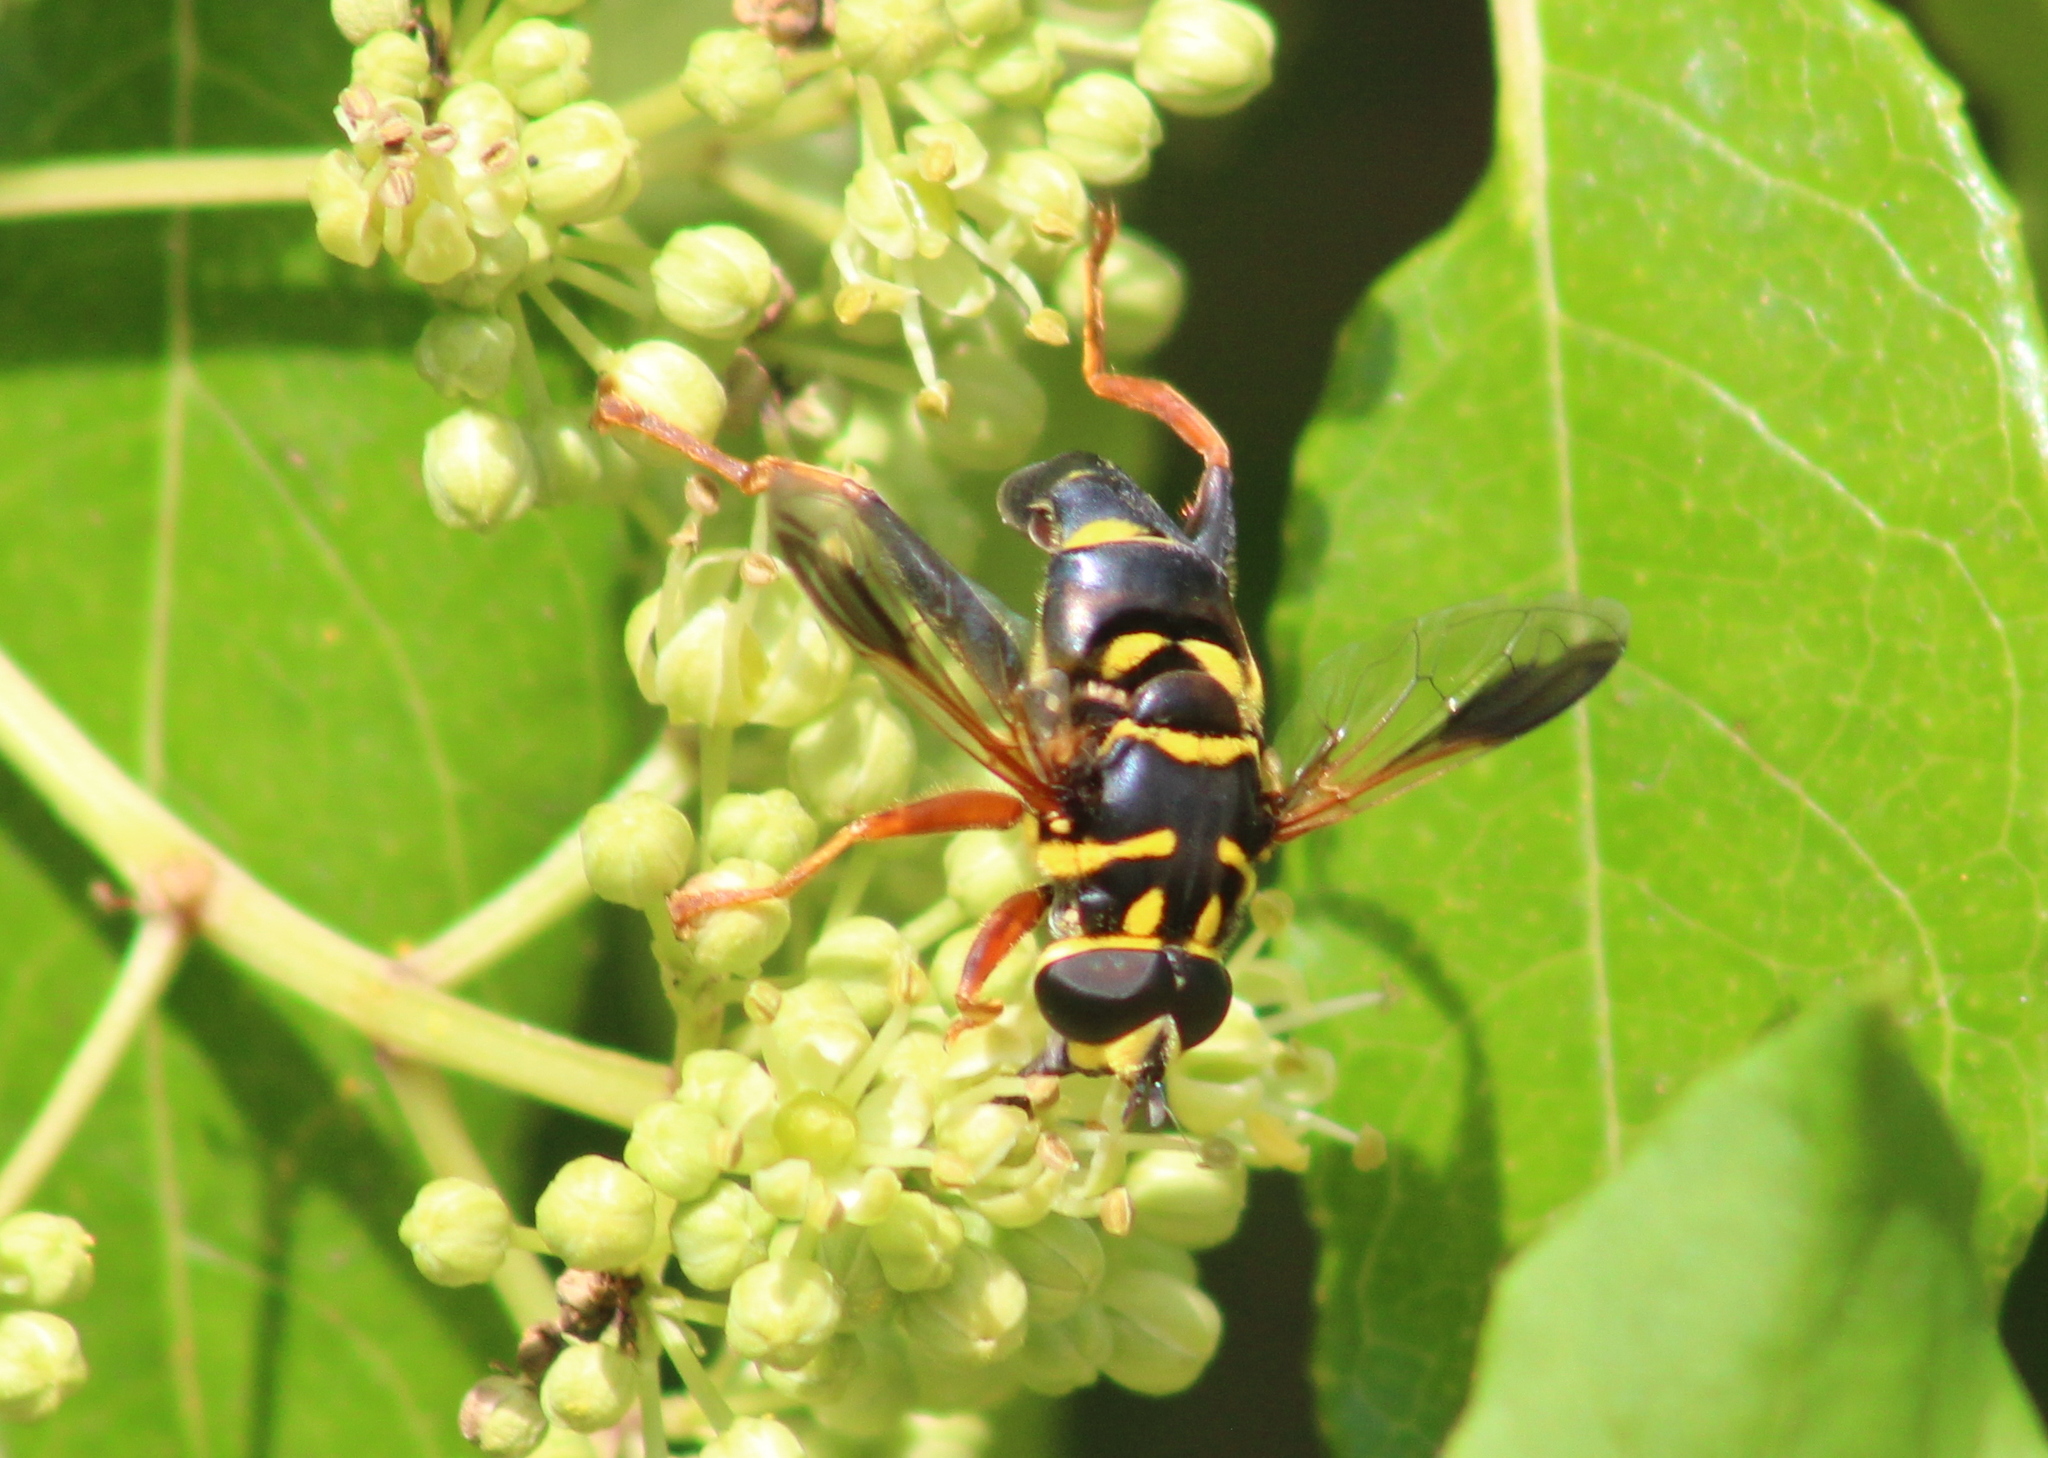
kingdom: Animalia
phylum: Arthropoda
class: Insecta
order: Diptera
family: Syrphidae
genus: Meromacrus
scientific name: Meromacrus acutus
